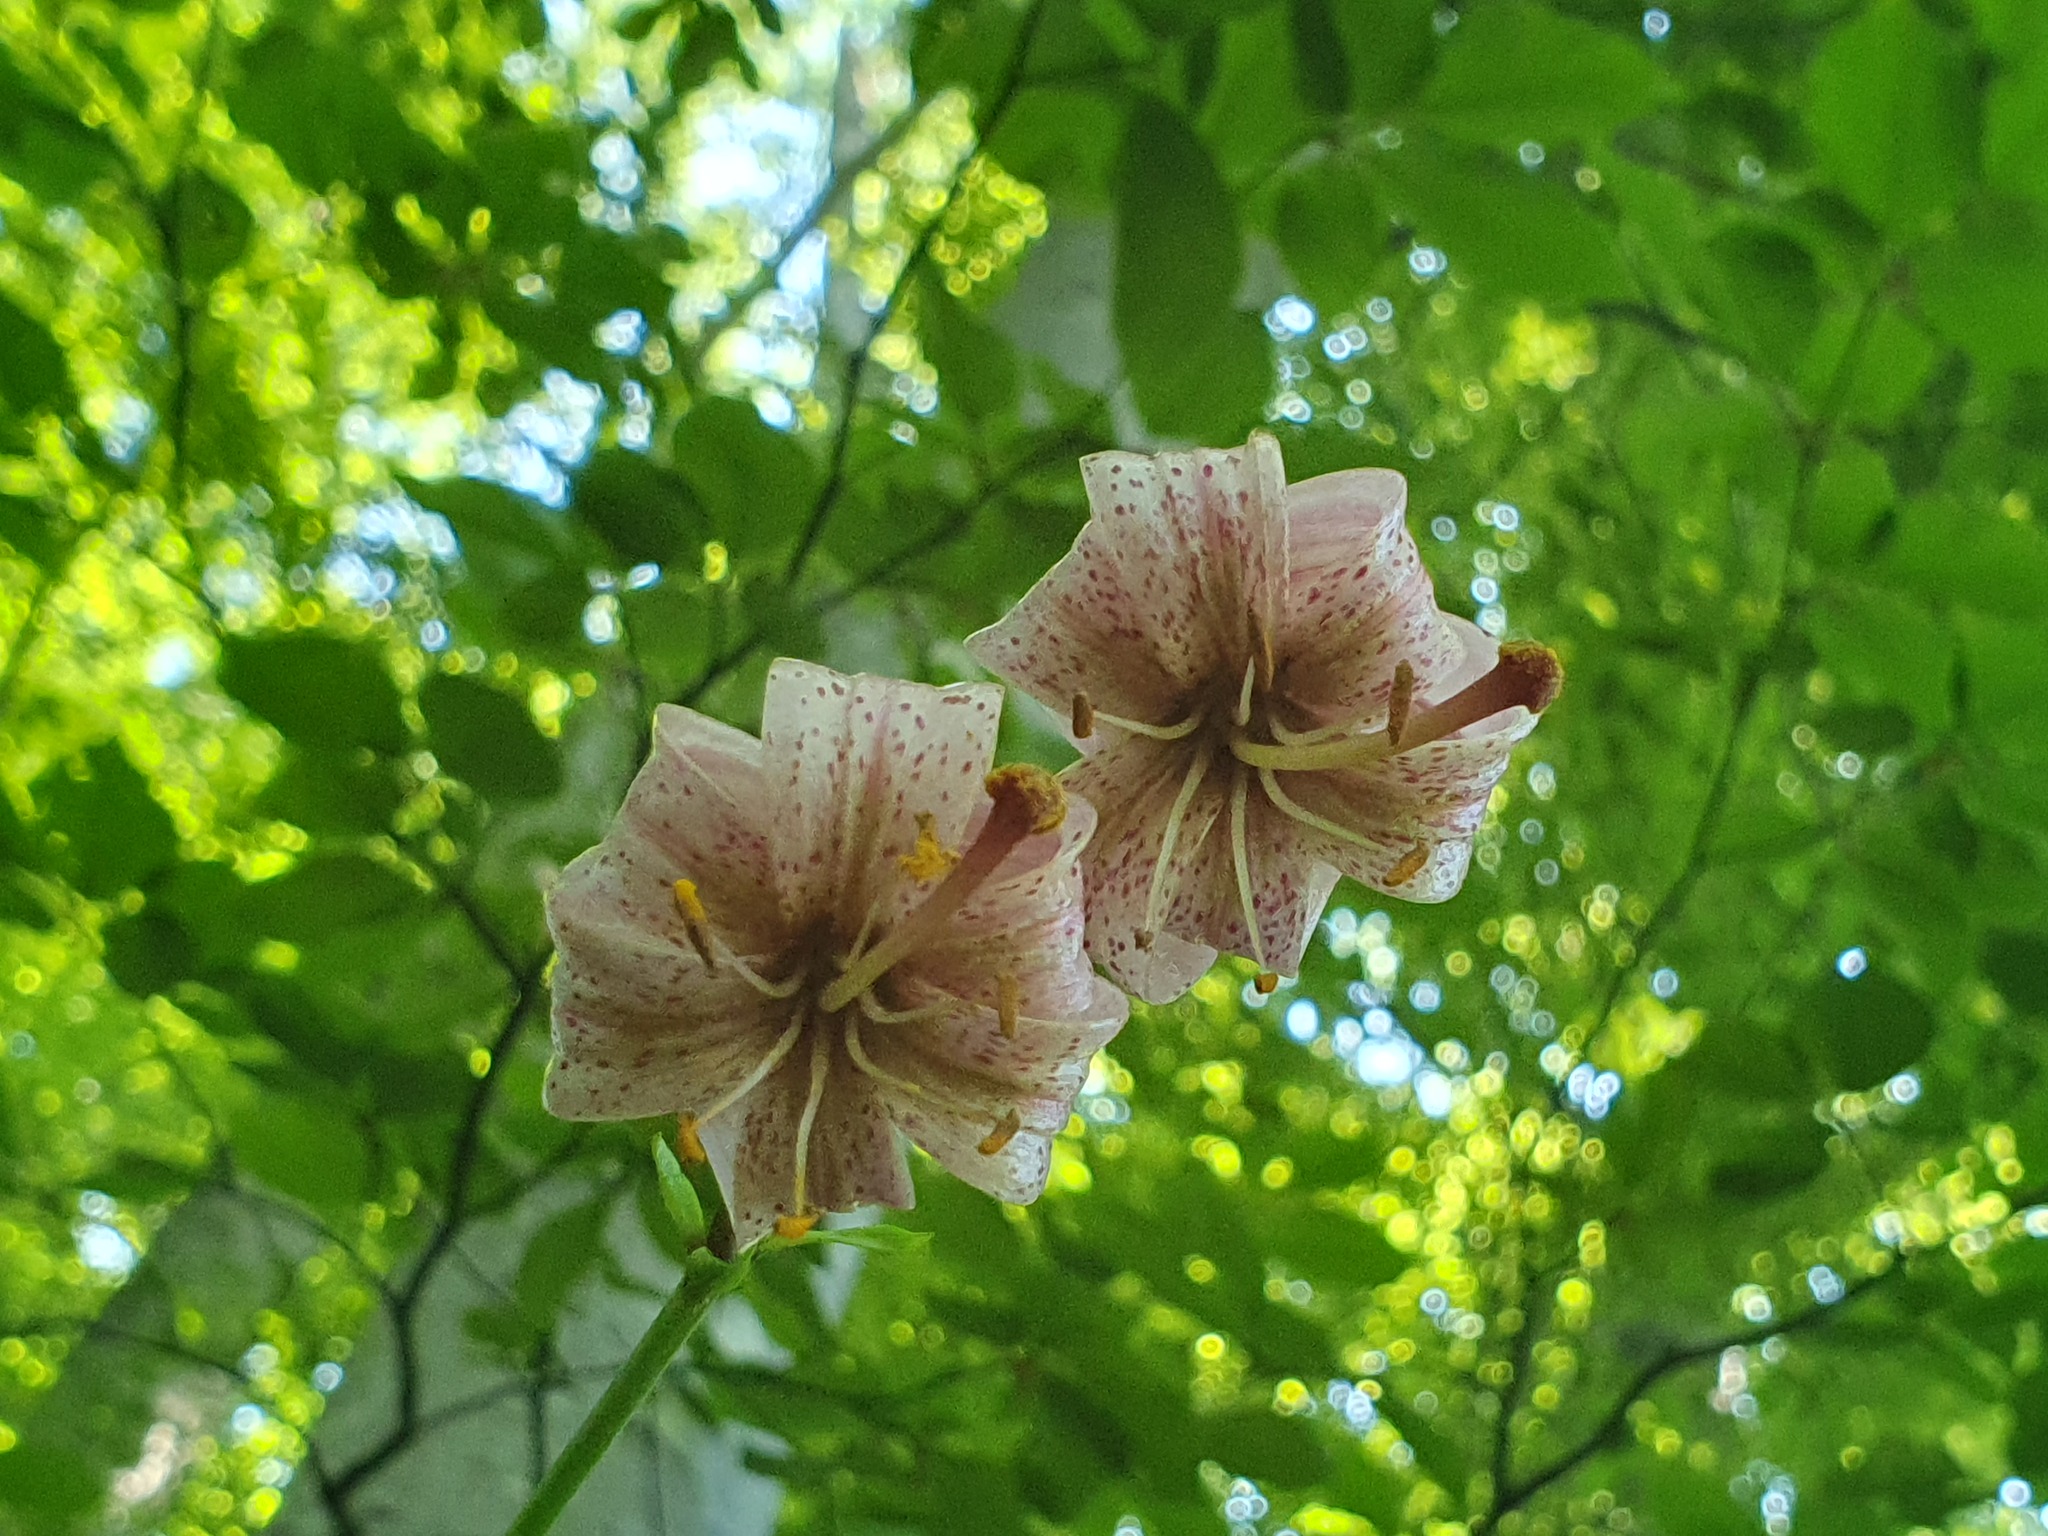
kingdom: Plantae
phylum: Tracheophyta
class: Liliopsida
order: Liliales
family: Liliaceae
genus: Lilium
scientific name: Lilium martagon
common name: Martagon lily
